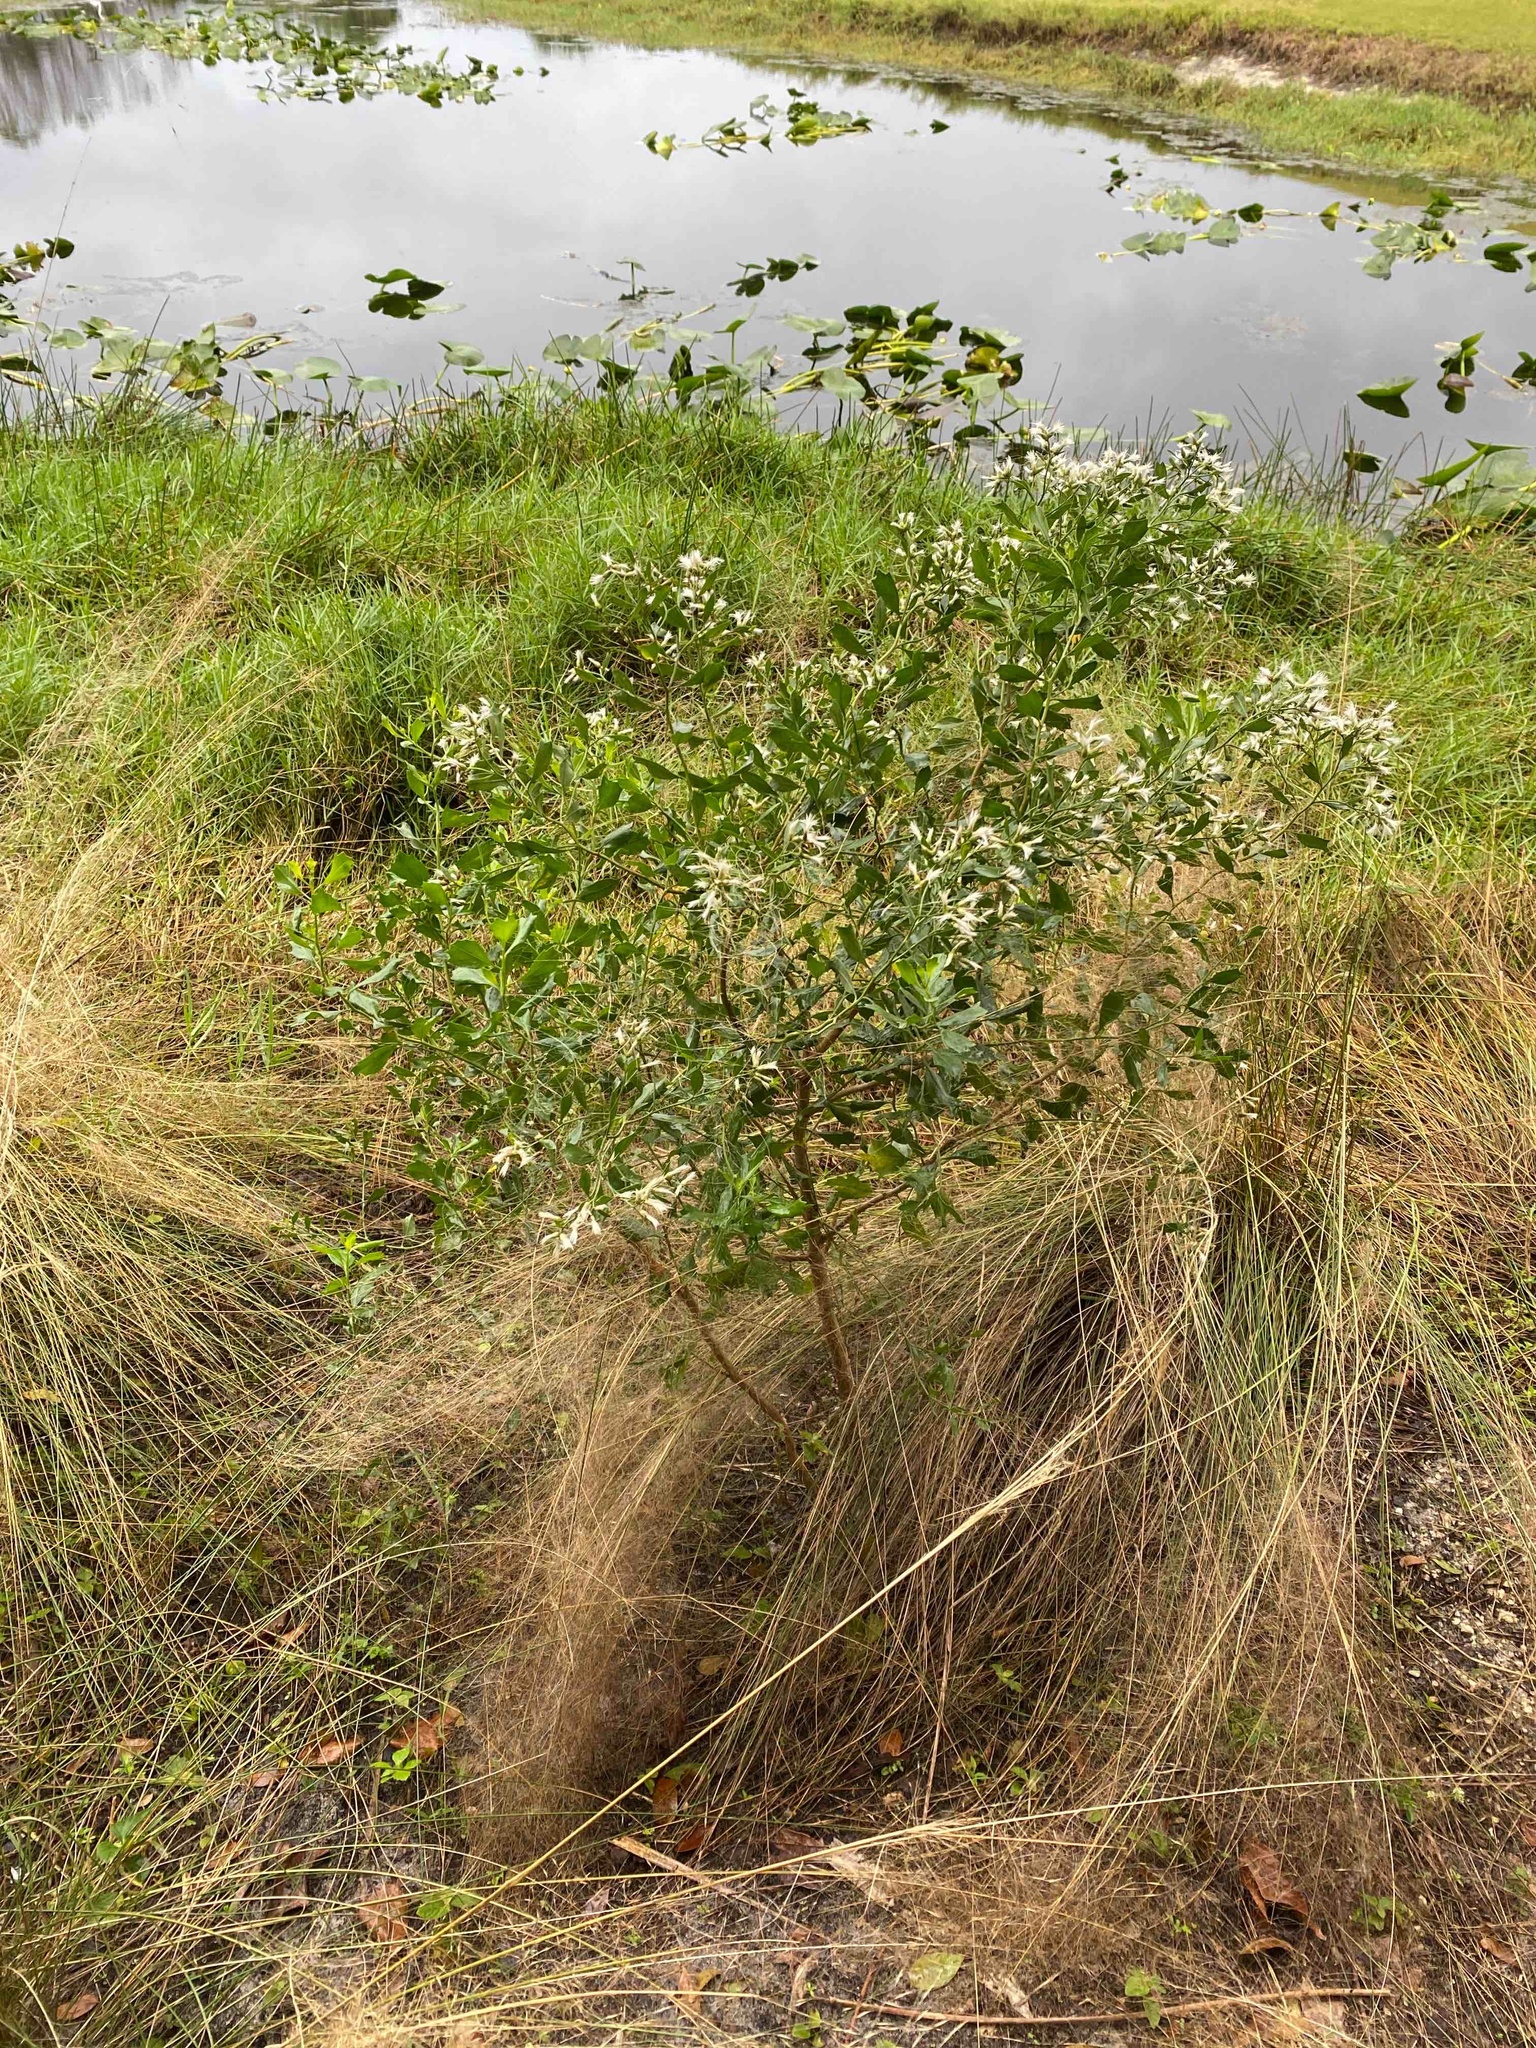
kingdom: Plantae
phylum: Tracheophyta
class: Magnoliopsida
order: Asterales
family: Asteraceae
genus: Baccharis
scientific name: Baccharis halimifolia
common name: Eastern baccharis
